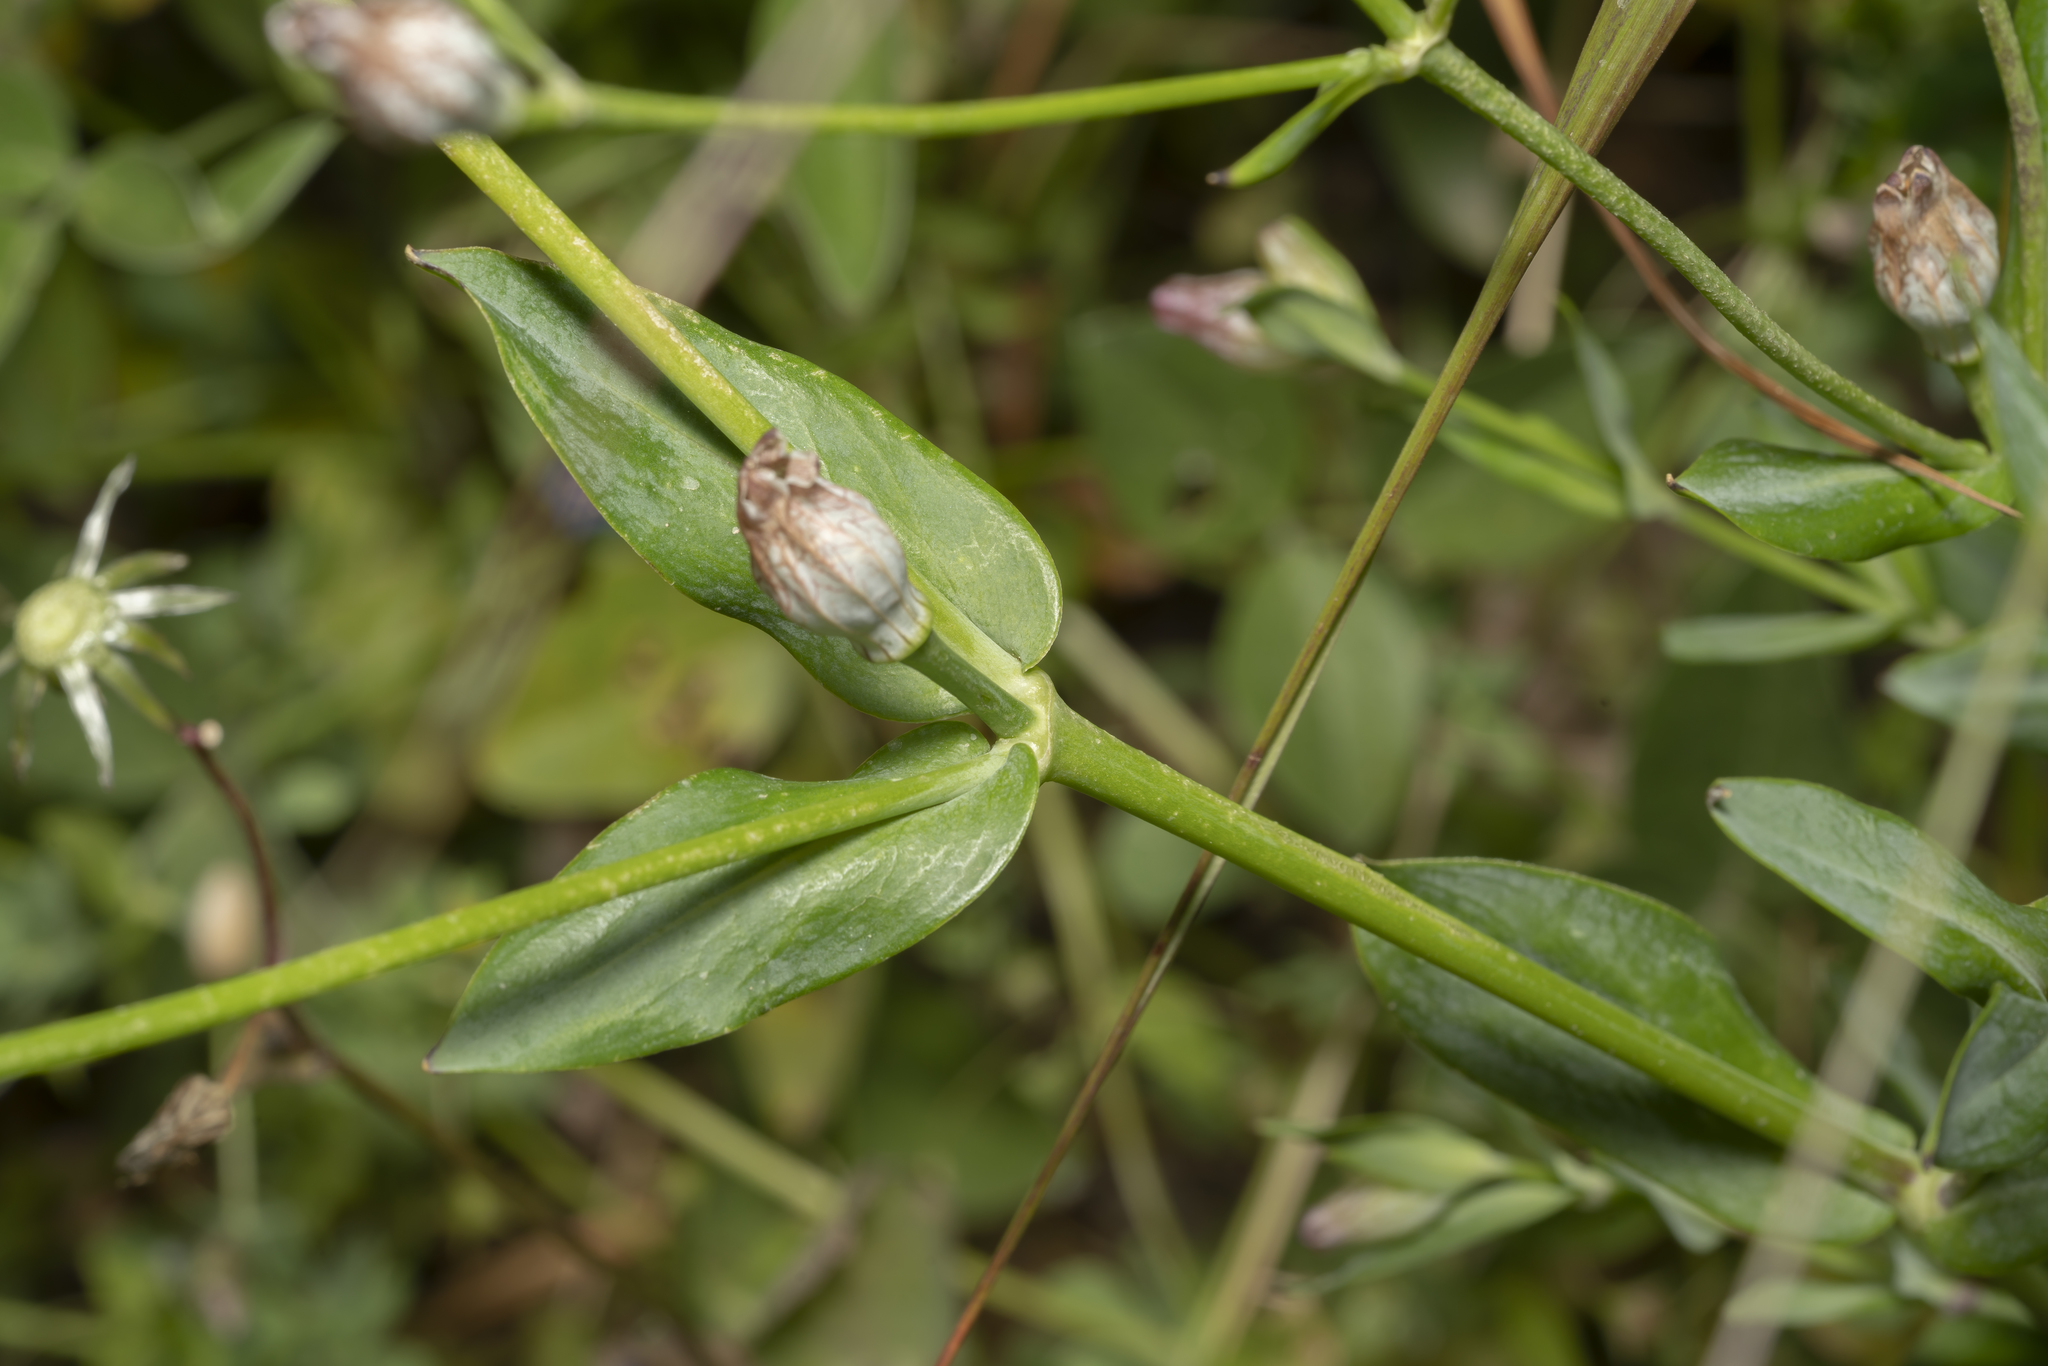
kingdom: Plantae
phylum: Tracheophyta
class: Magnoliopsida
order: Caryophyllales
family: Caryophyllaceae
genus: Silene
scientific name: Silene behen
